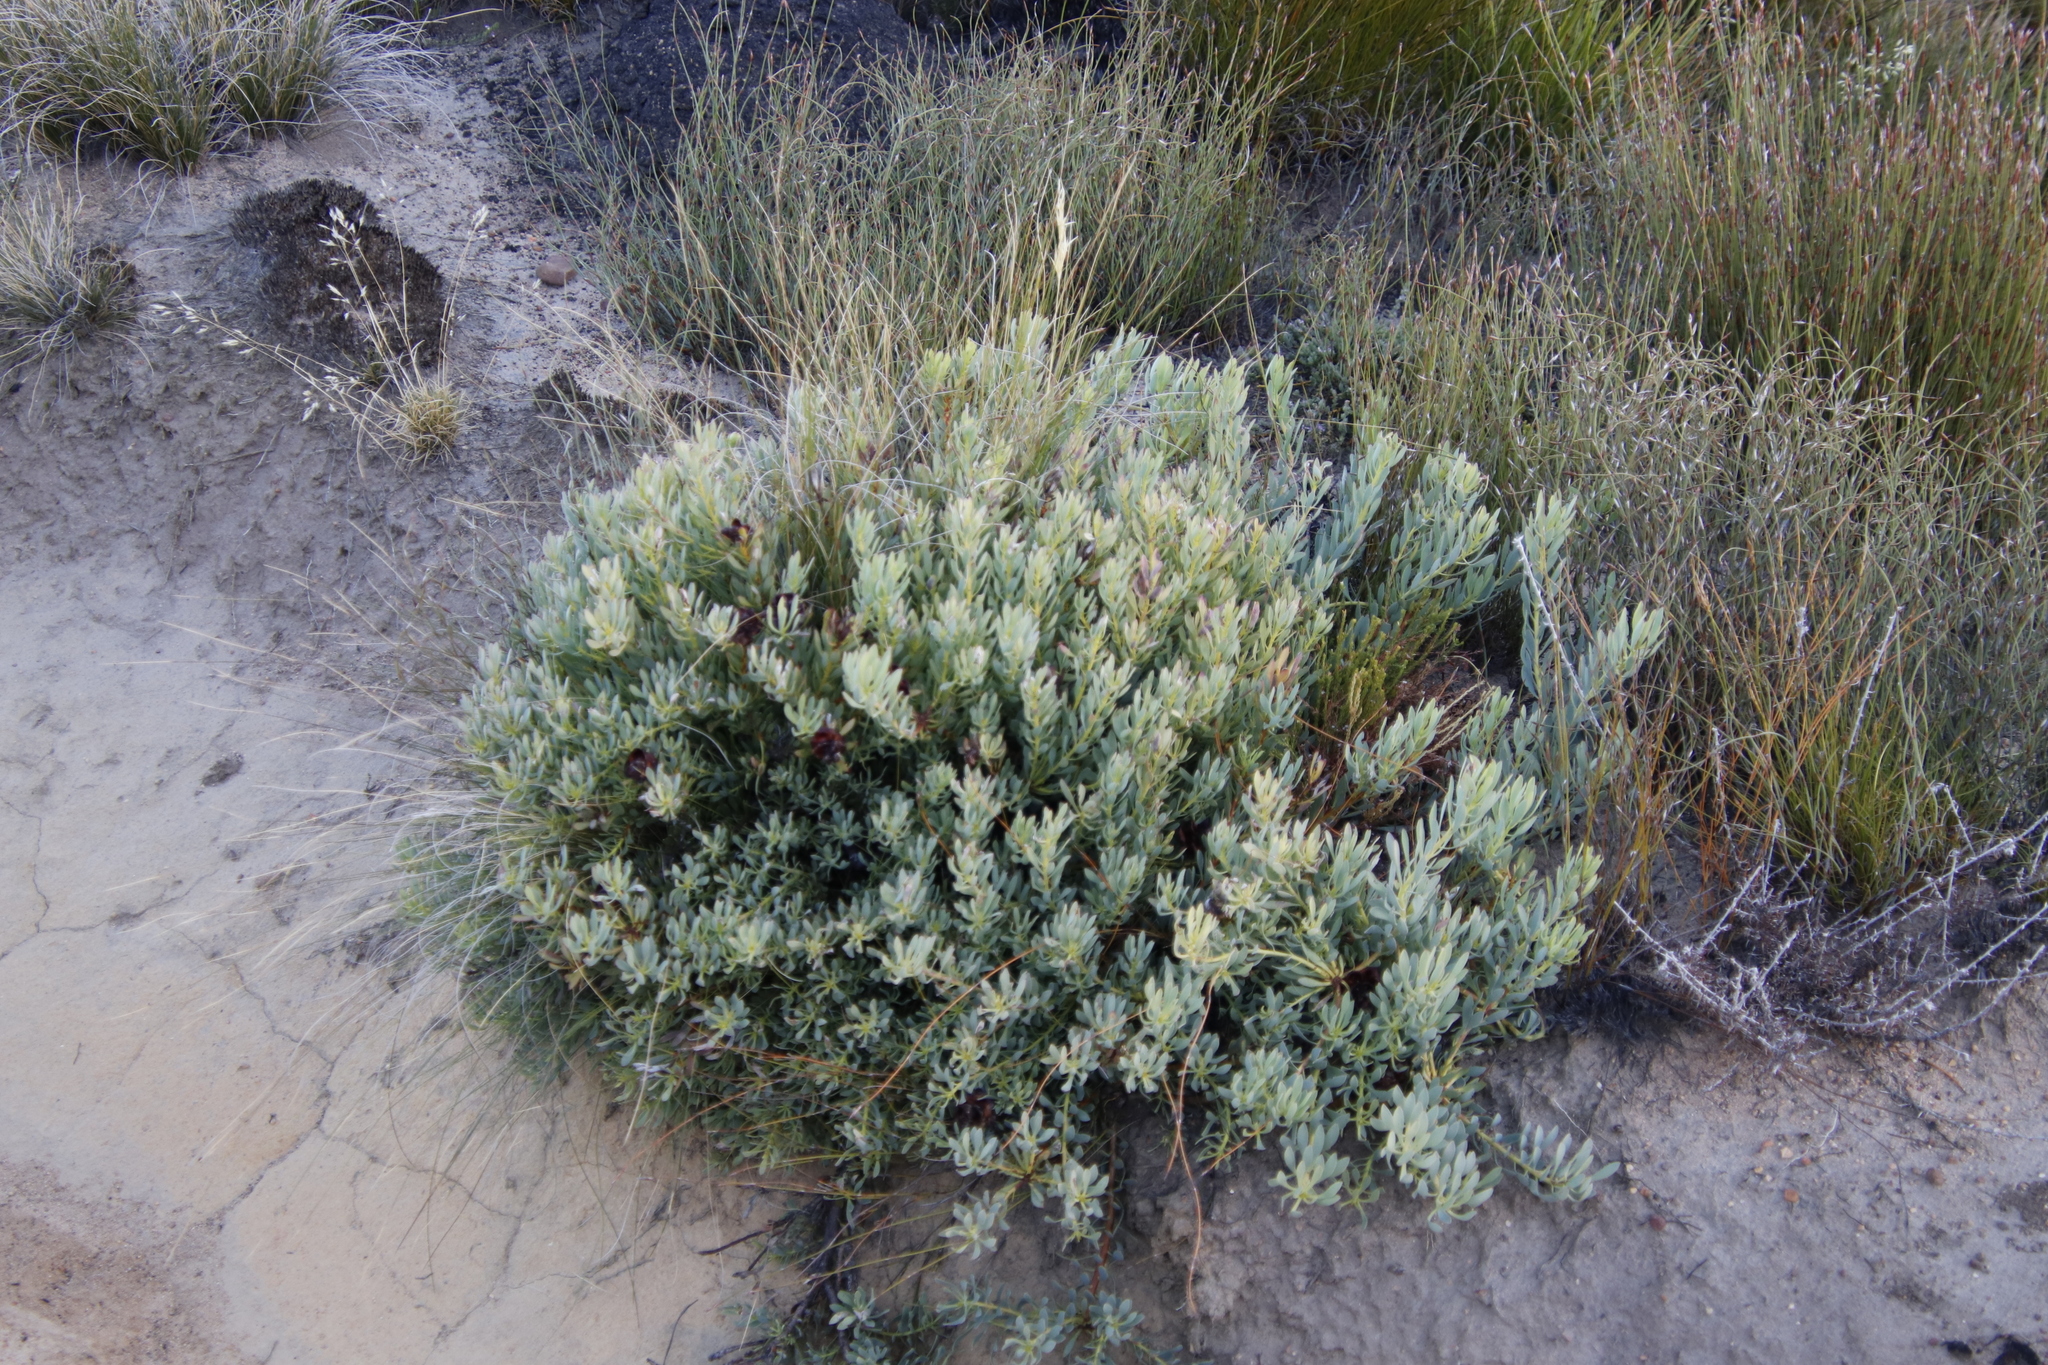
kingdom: Plantae
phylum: Tracheophyta
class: Magnoliopsida
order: Proteales
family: Proteaceae
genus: Leucadendron
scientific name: Leucadendron glaberrimum
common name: Common oily conebush
